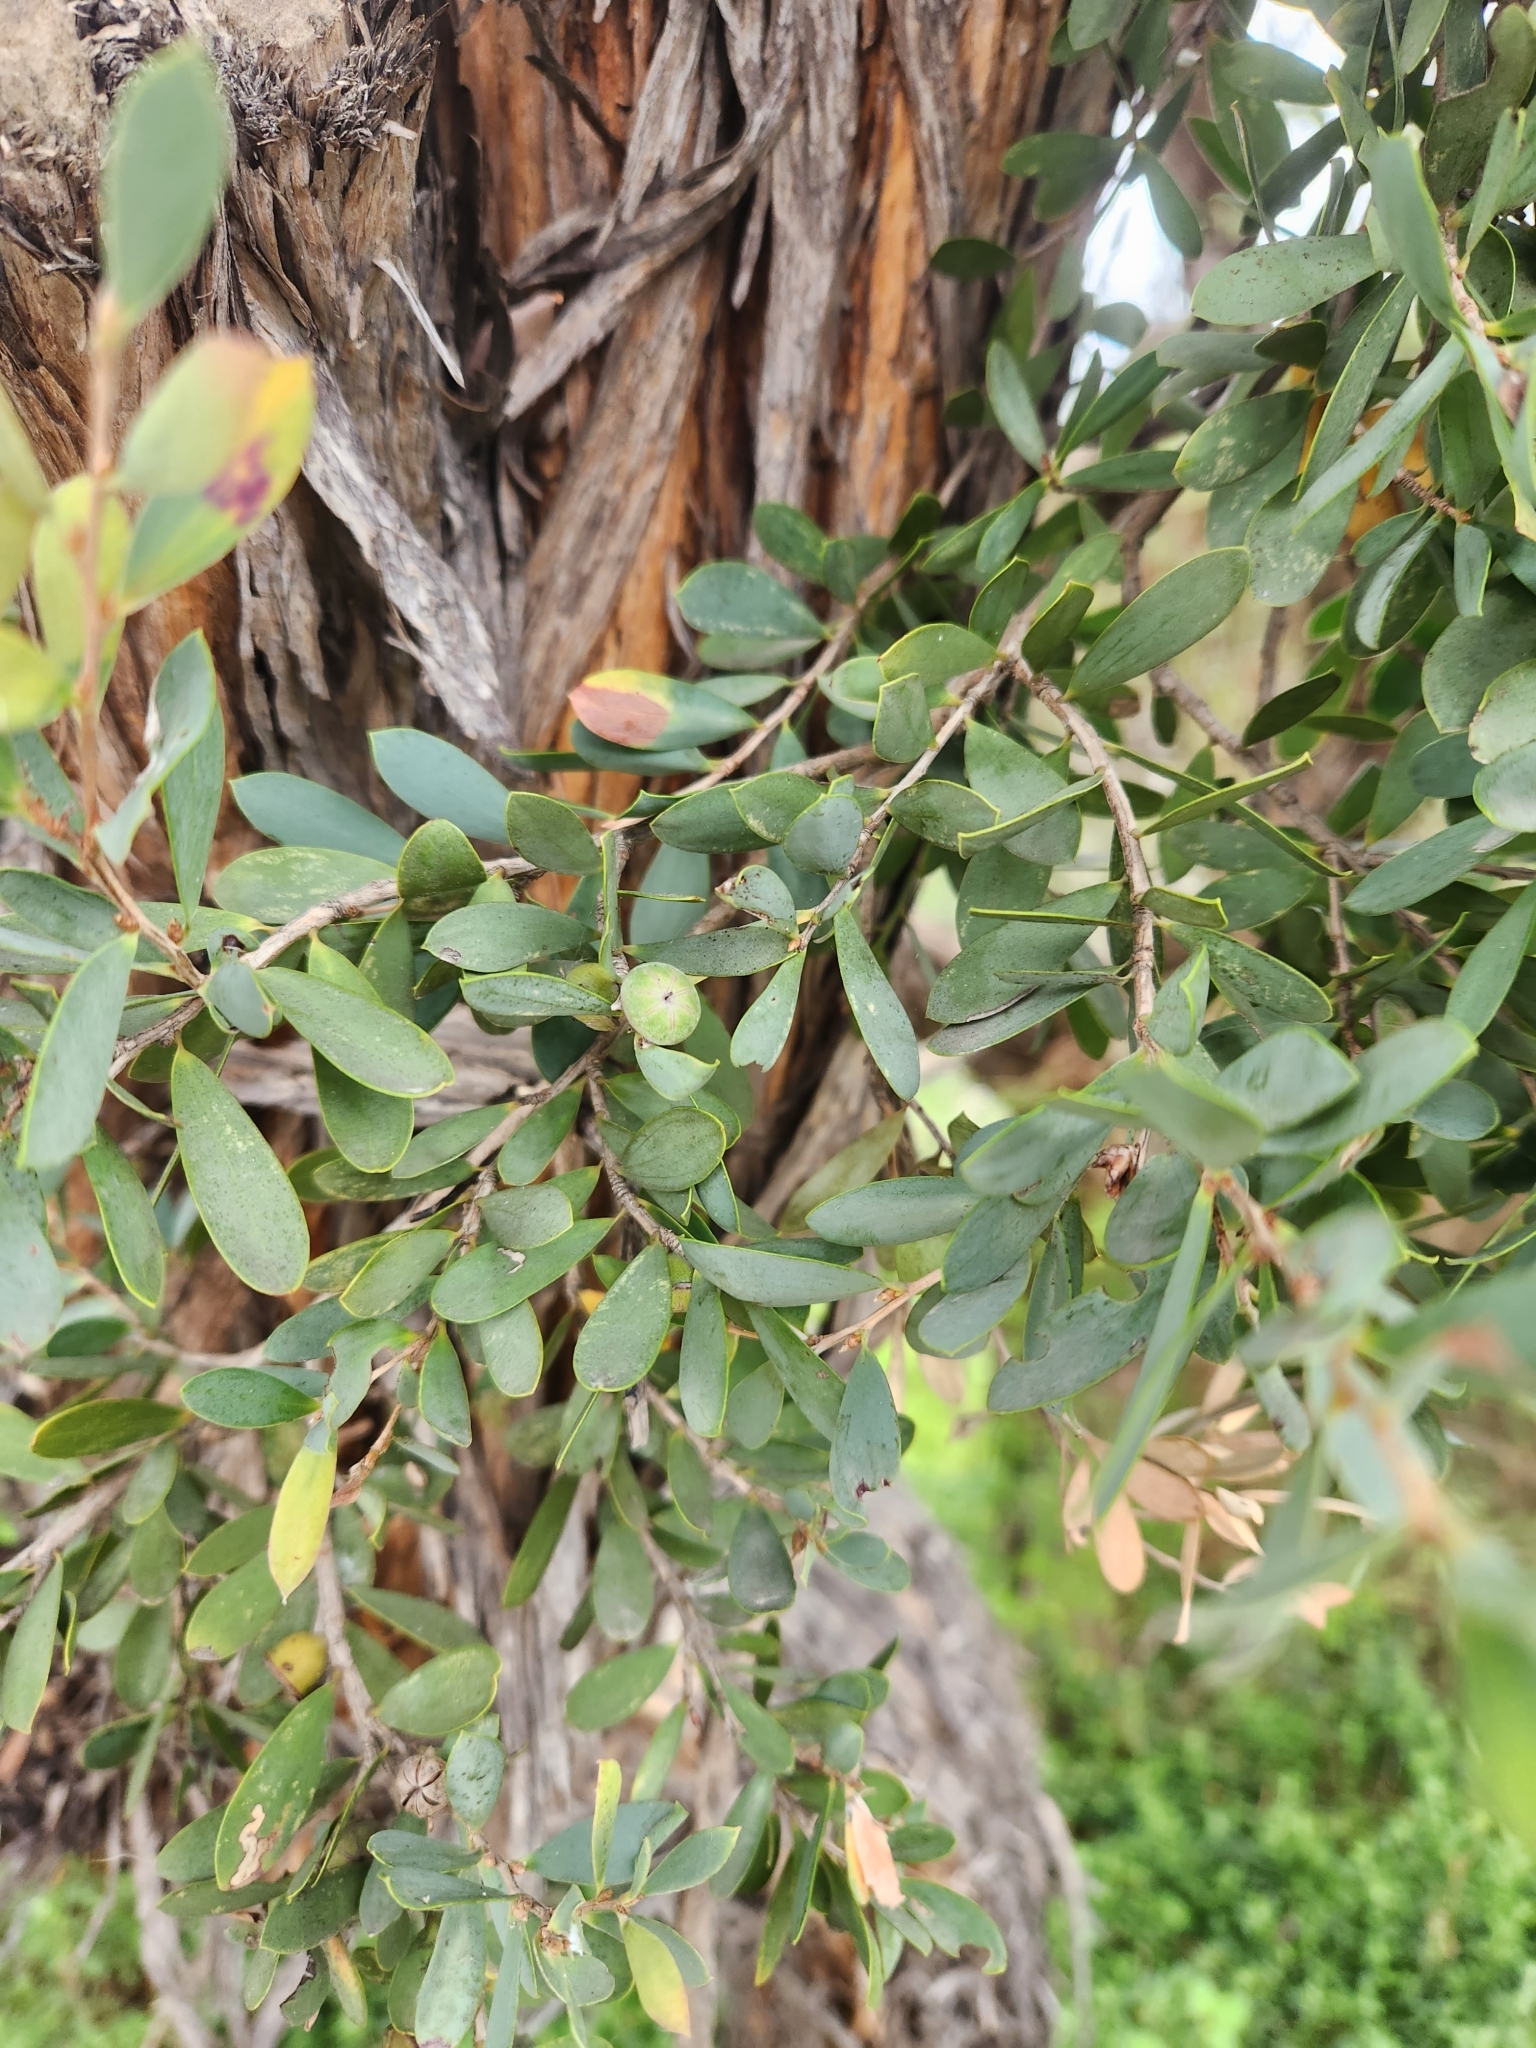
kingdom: Plantae
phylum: Tracheophyta
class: Magnoliopsida
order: Myrtales
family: Myrtaceae
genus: Leptospermum
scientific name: Leptospermum laevigatum
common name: Australian teatree
